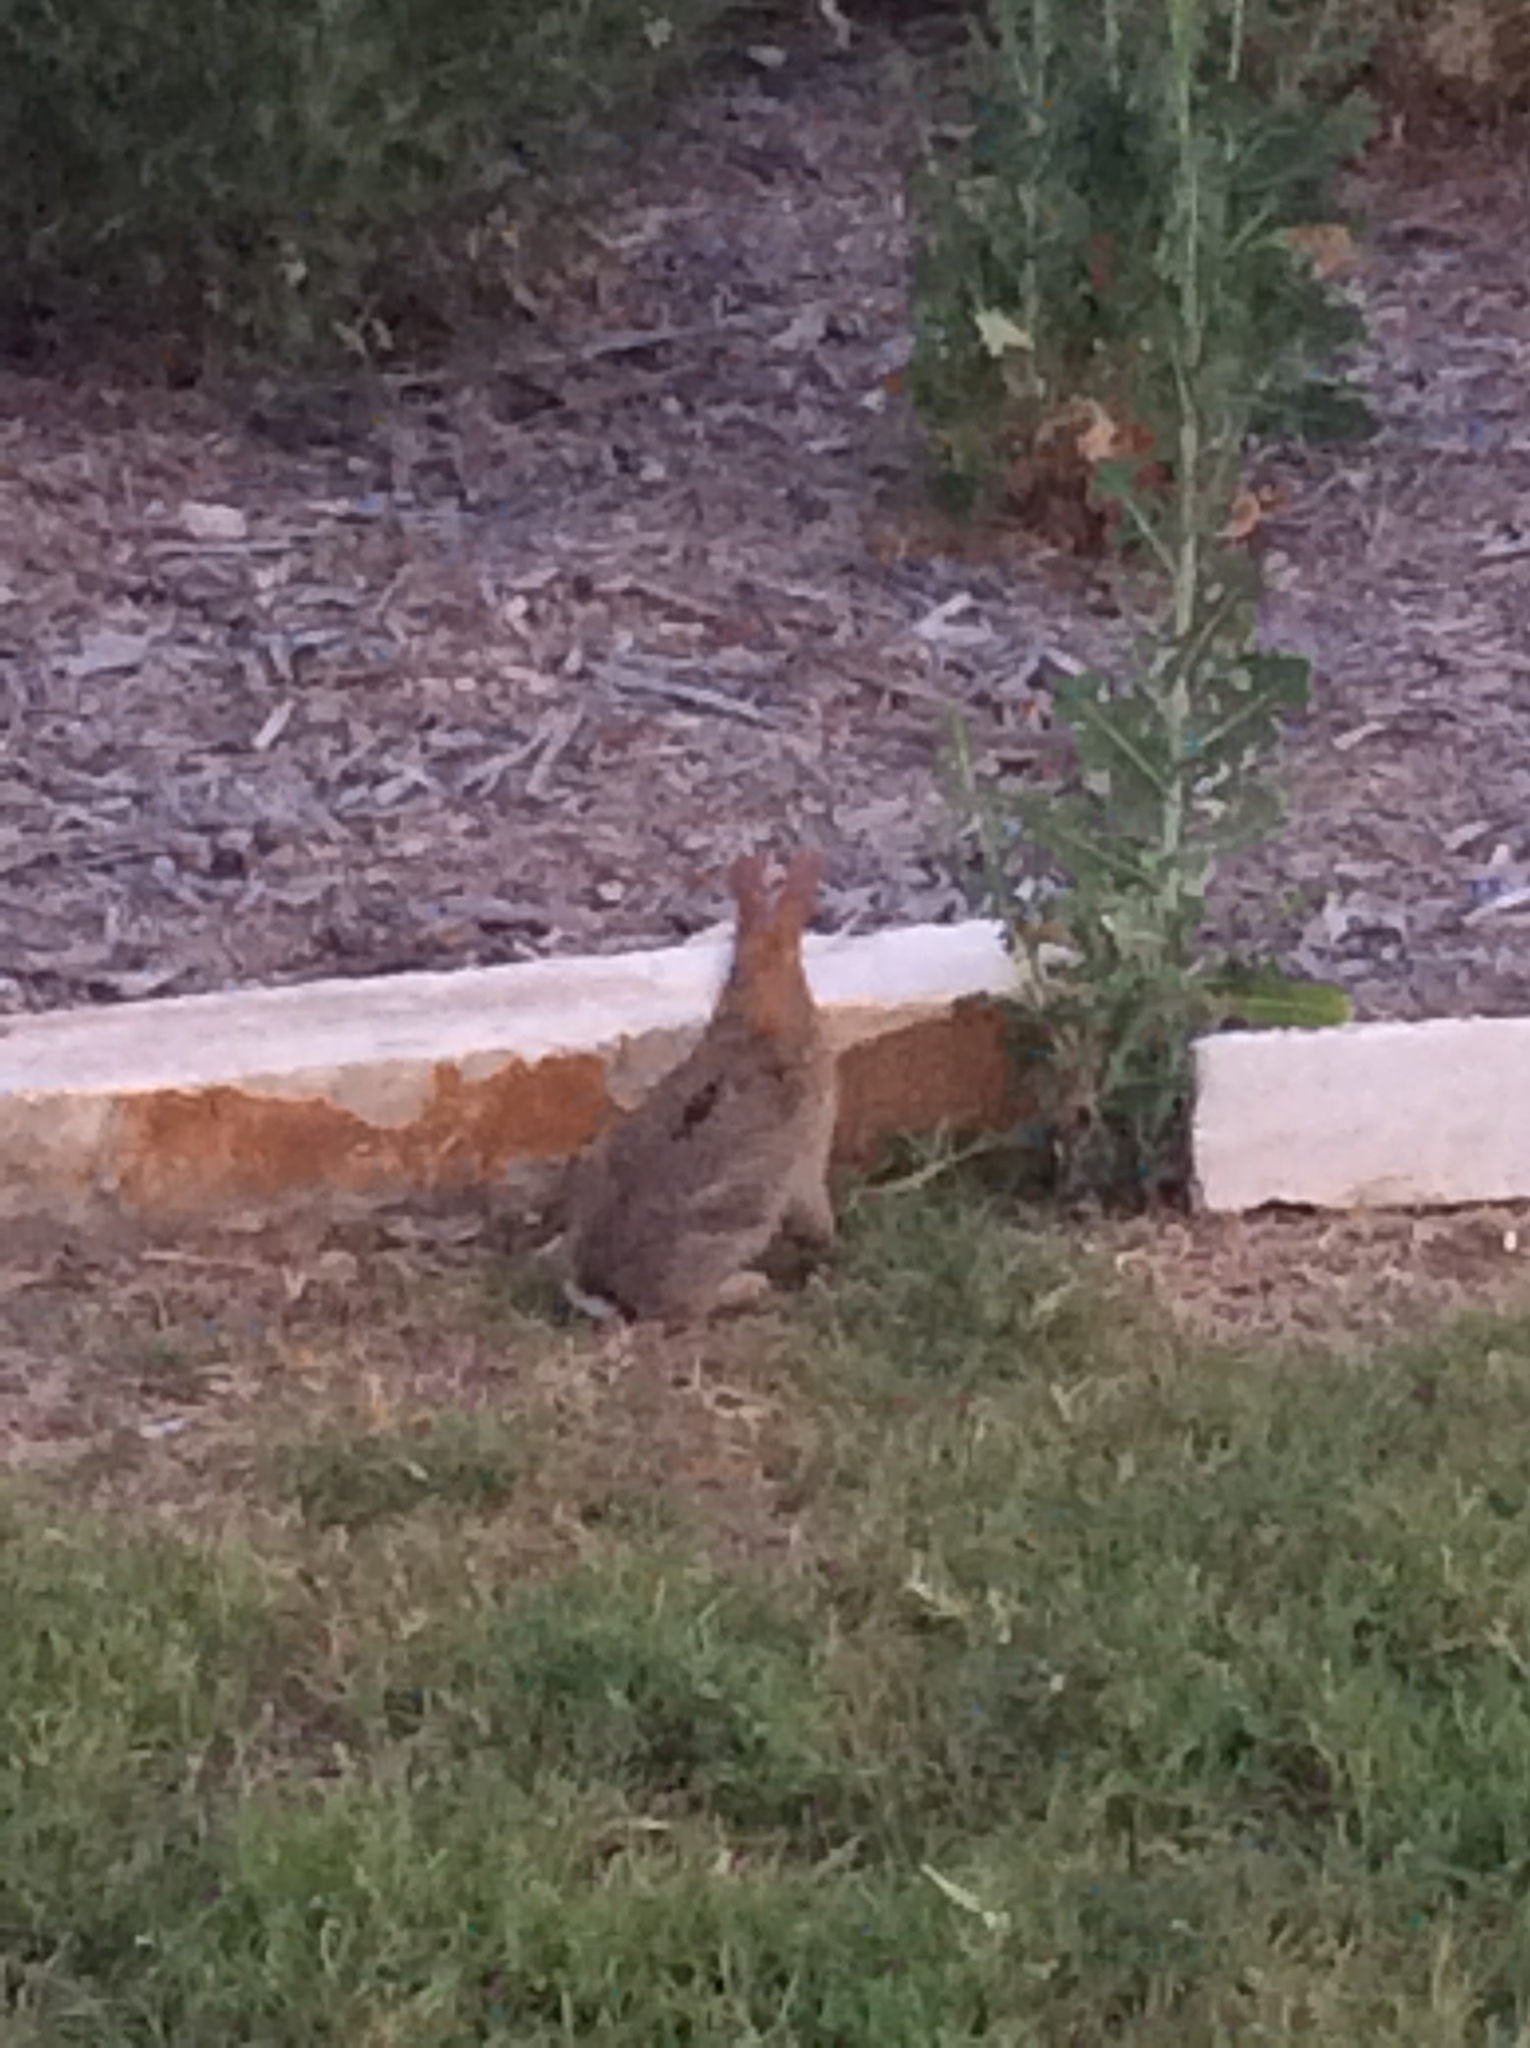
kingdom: Animalia
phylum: Chordata
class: Mammalia
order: Lagomorpha
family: Leporidae
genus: Sylvilagus
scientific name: Sylvilagus floridanus
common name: Eastern cottontail
